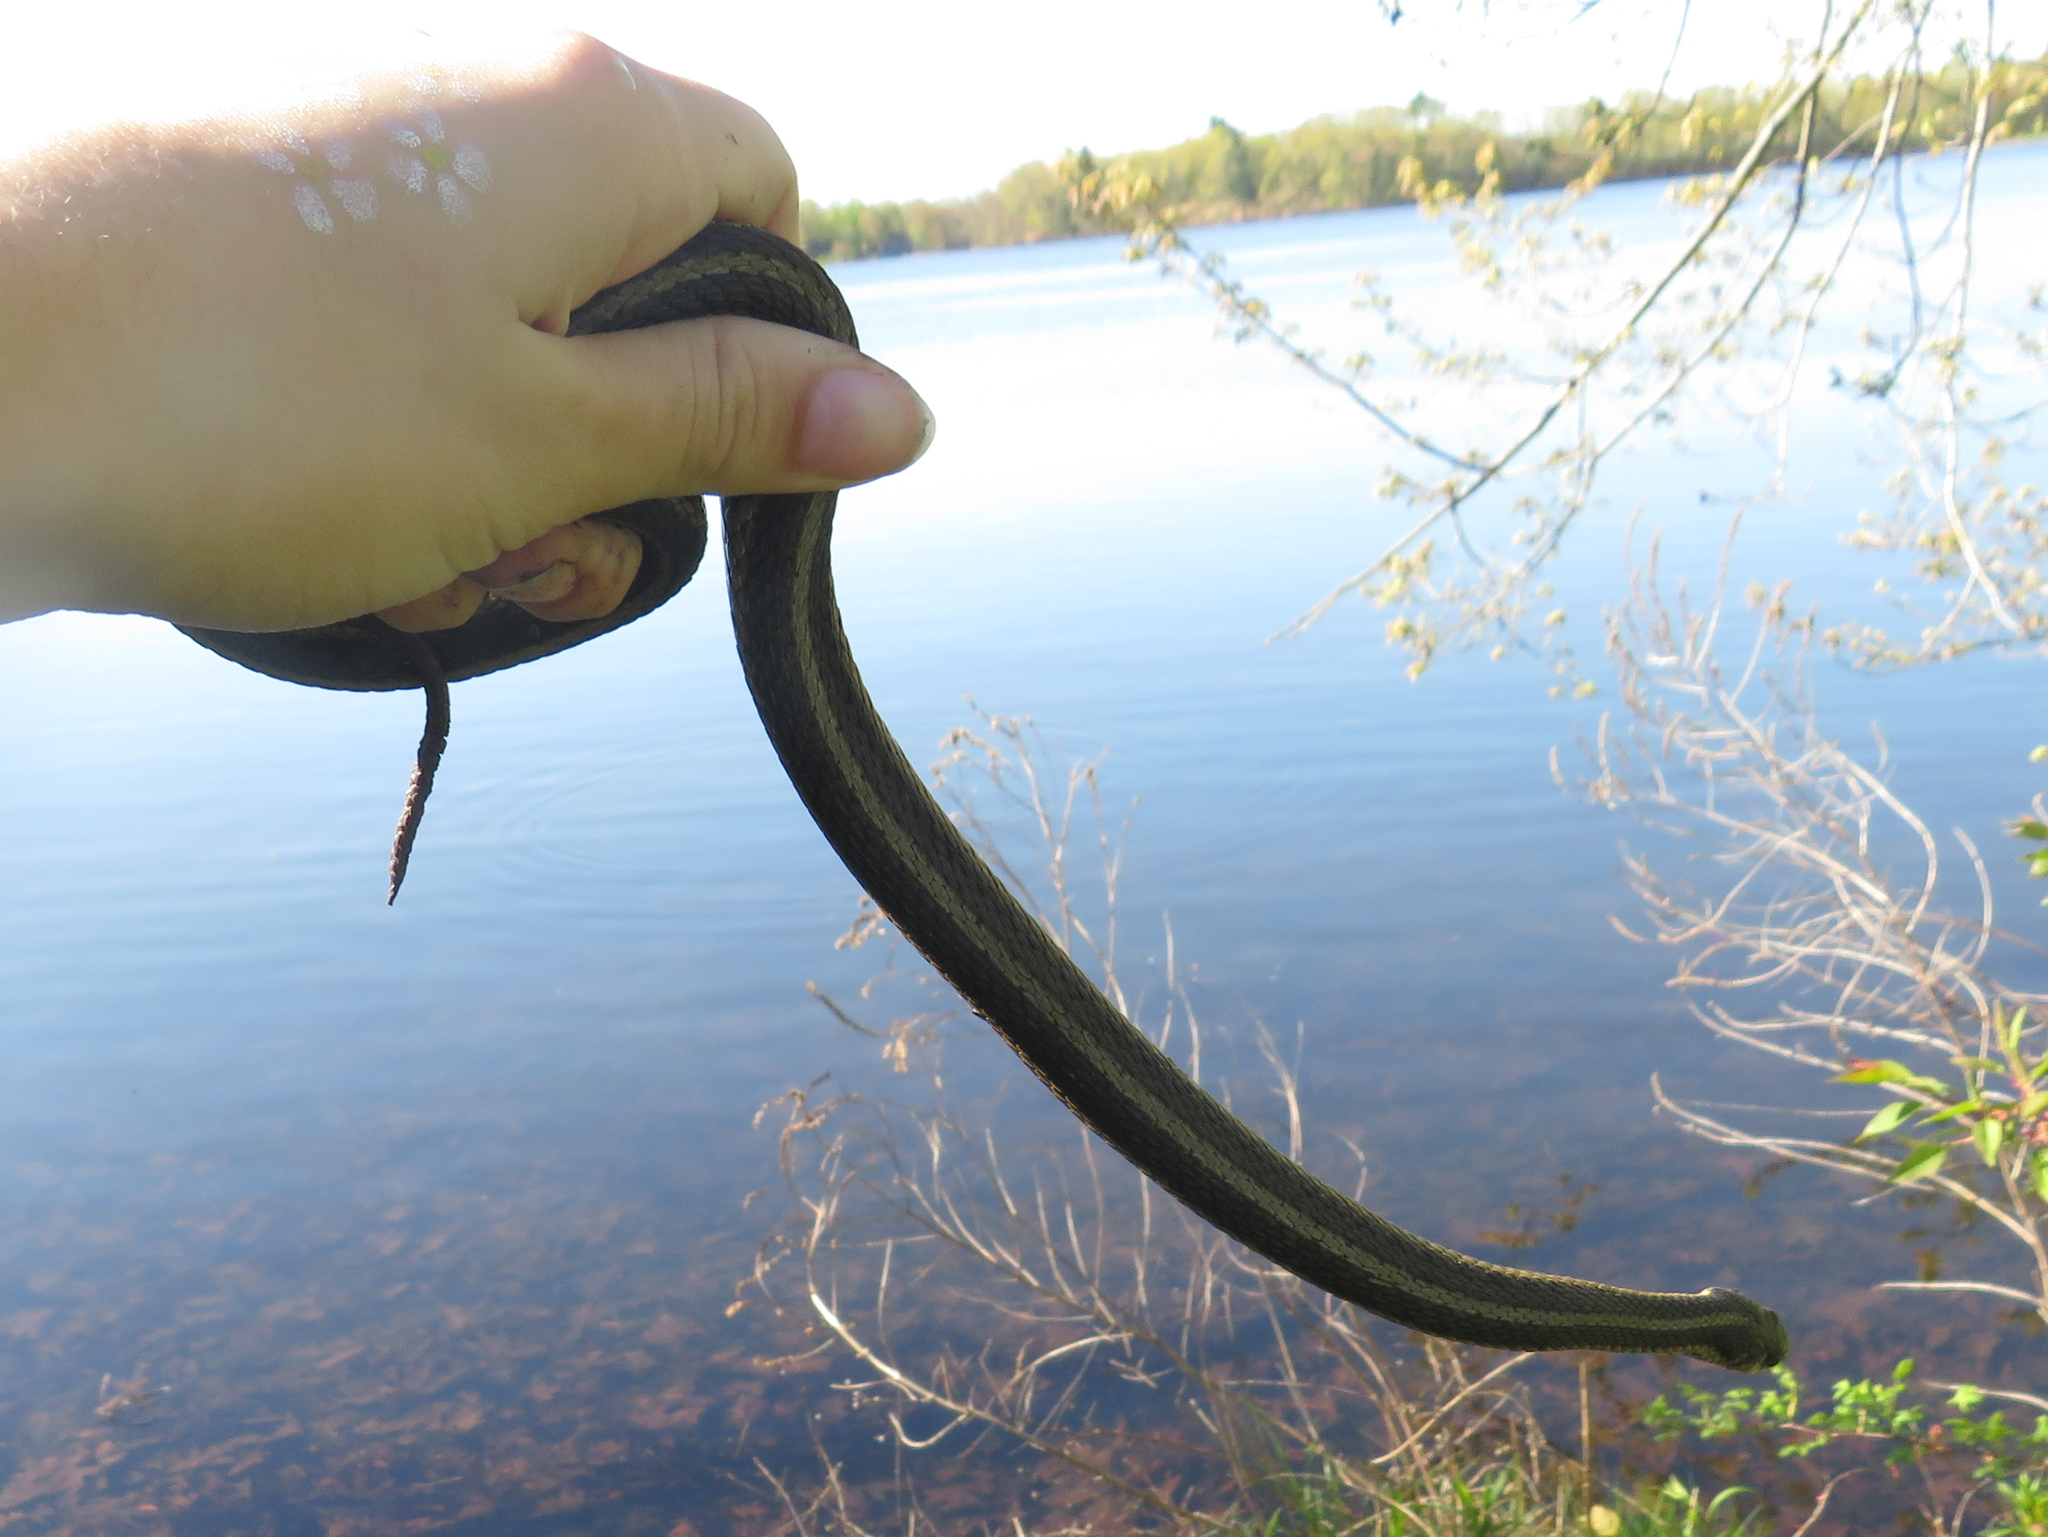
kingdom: Animalia
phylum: Chordata
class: Squamata
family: Colubridae
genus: Thamnophis
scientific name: Thamnophis sirtalis
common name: Common garter snake
